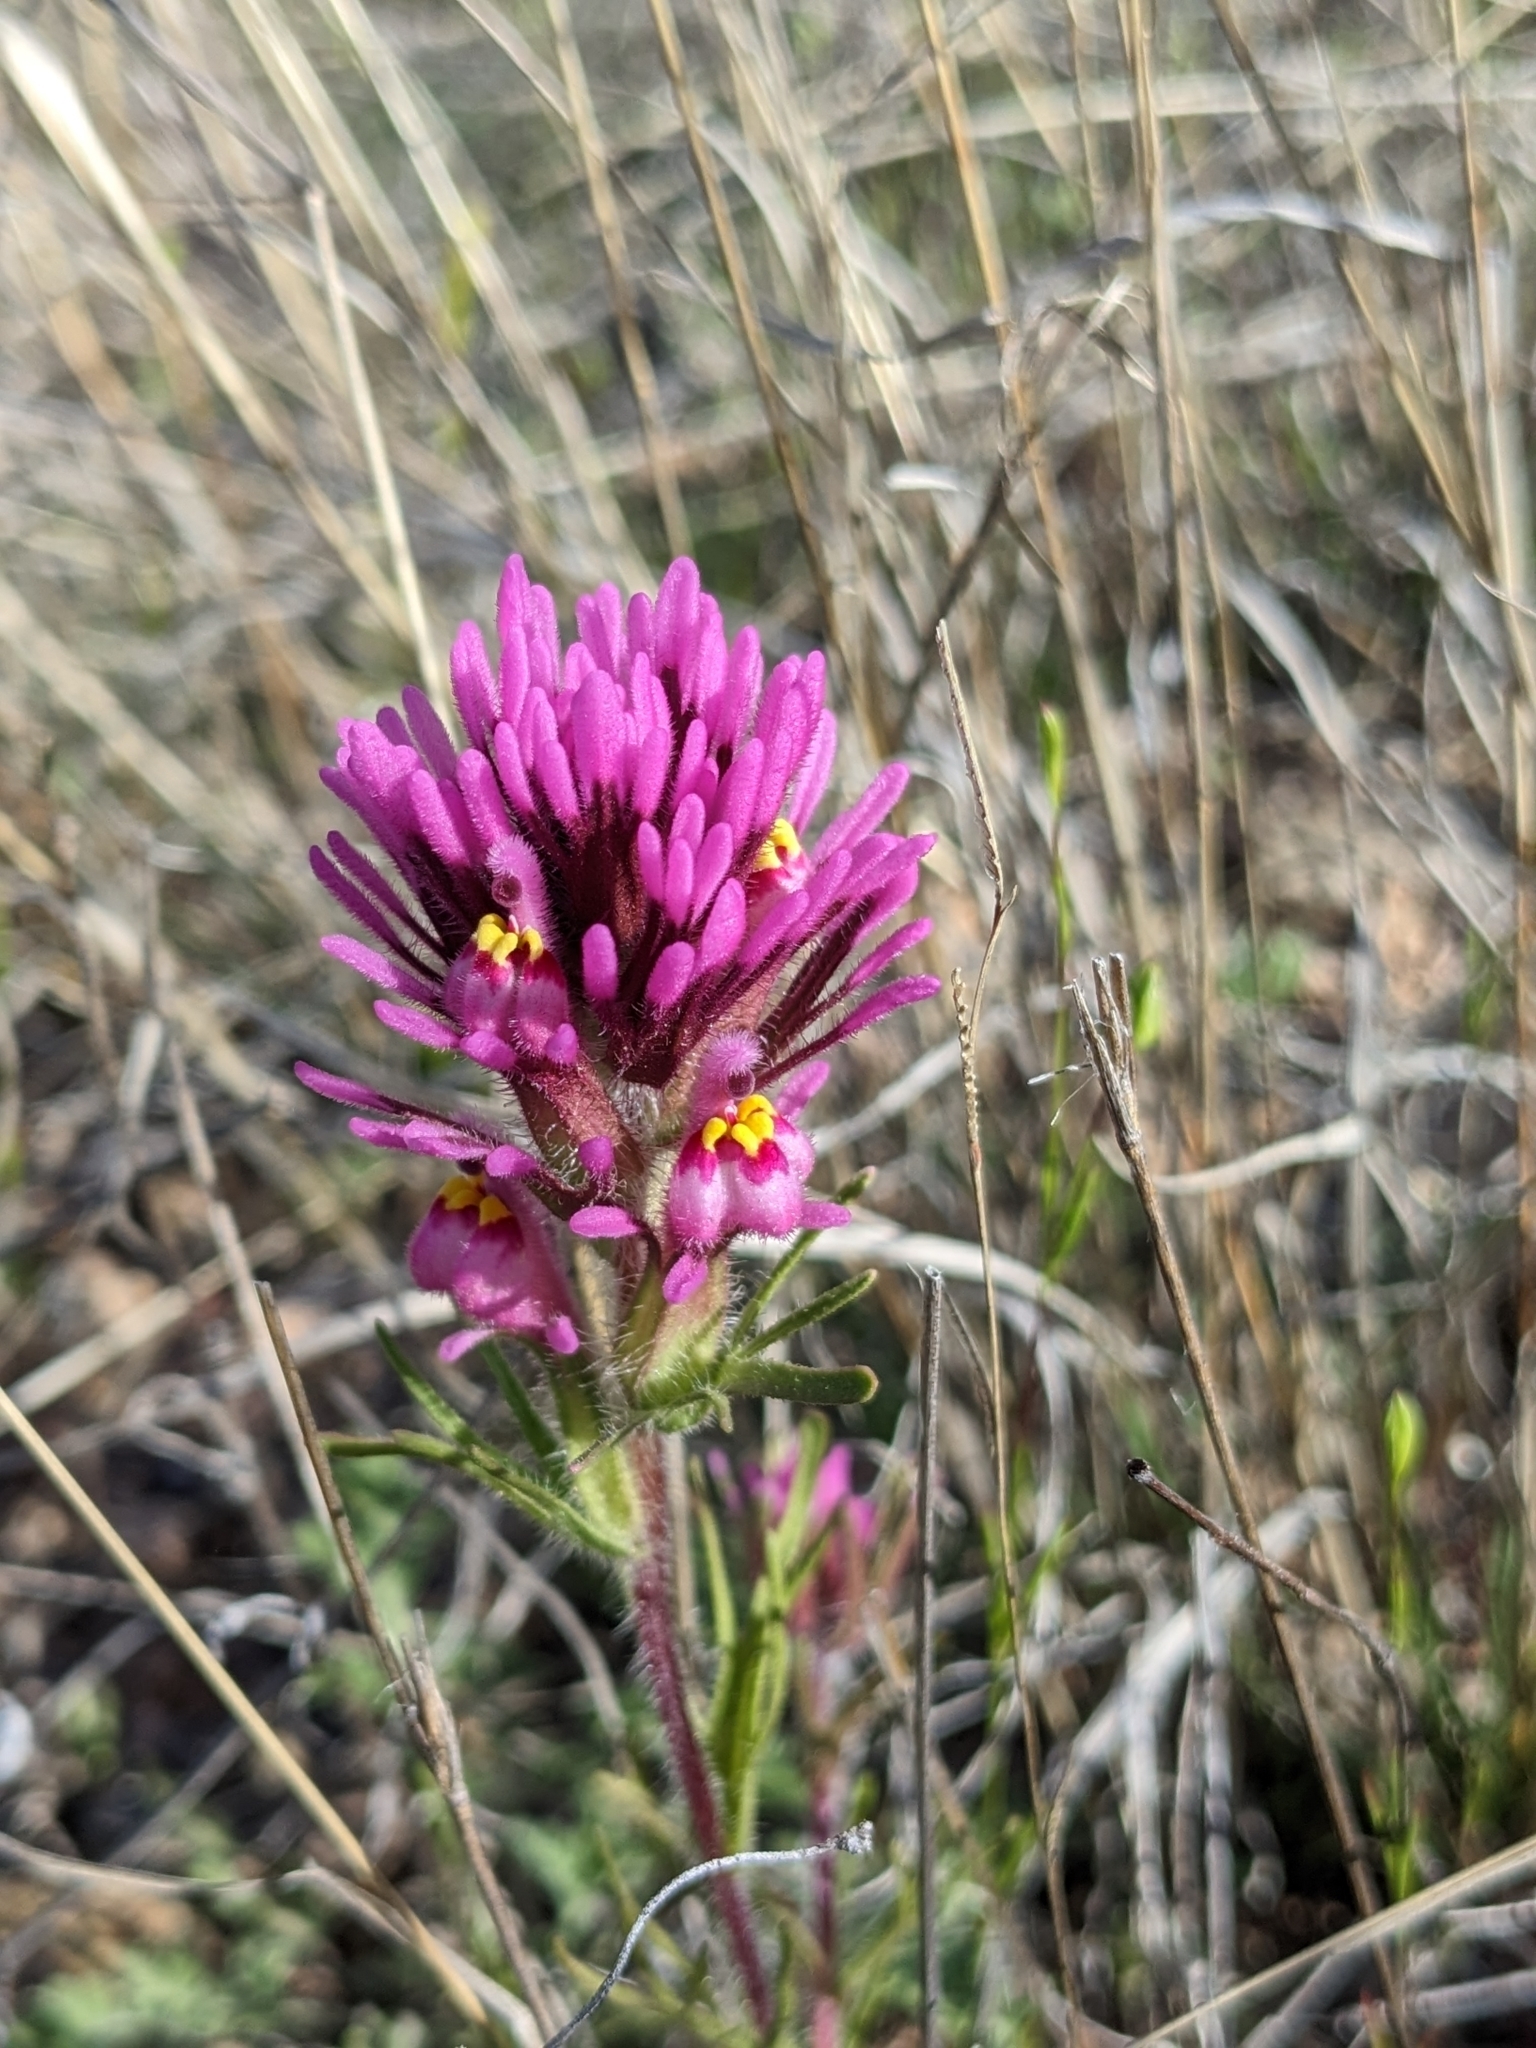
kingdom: Plantae
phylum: Tracheophyta
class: Magnoliopsida
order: Lamiales
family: Orobanchaceae
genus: Castilleja
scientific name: Castilleja exserta
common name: Purple owl-clover
